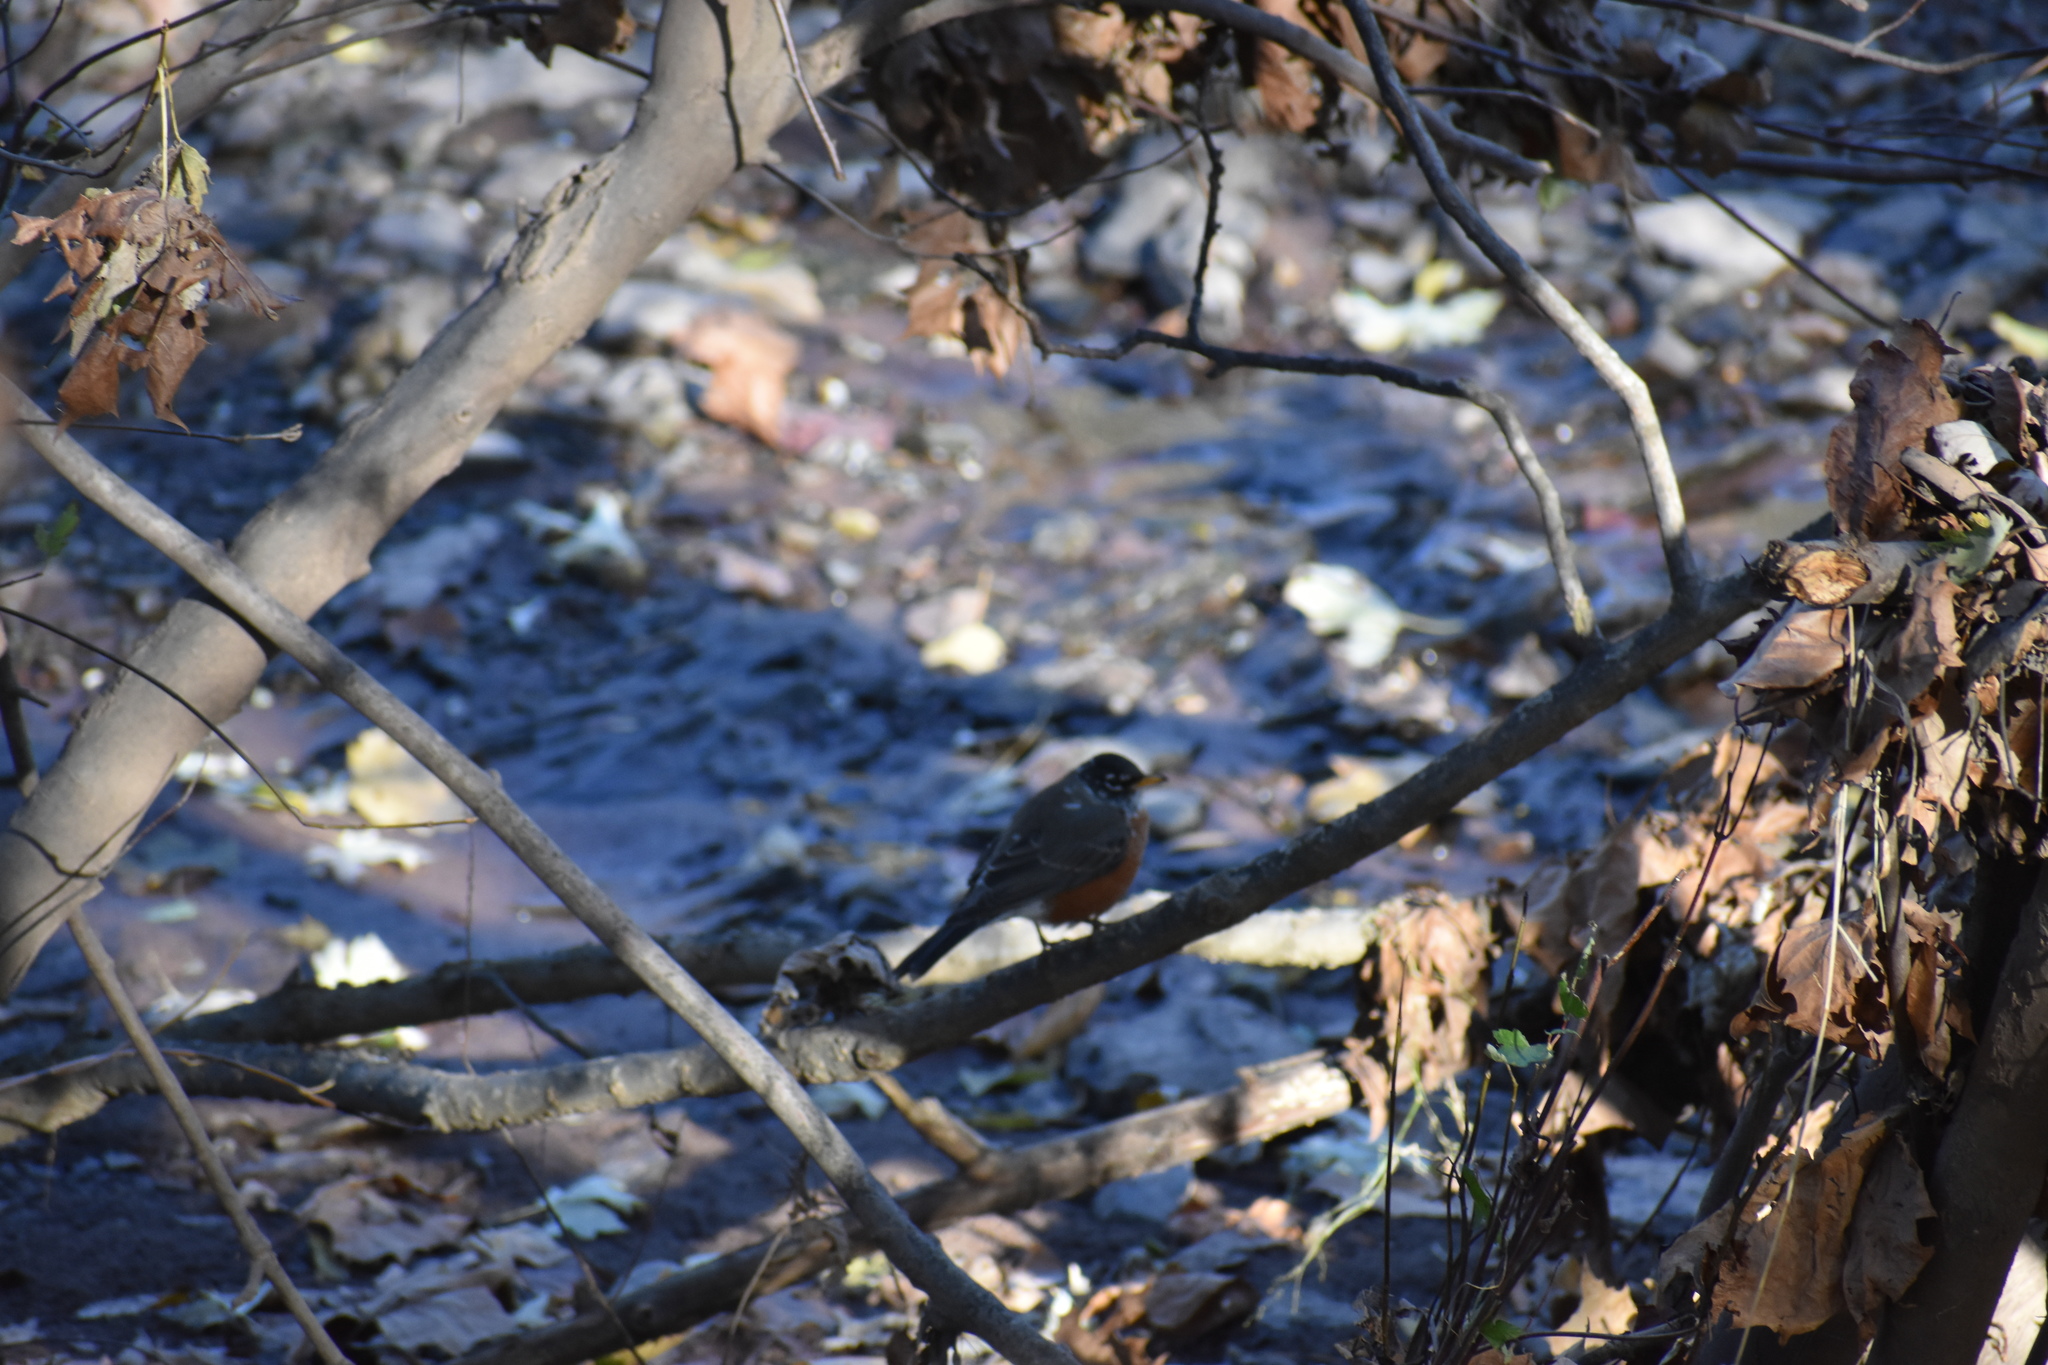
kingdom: Animalia
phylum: Chordata
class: Aves
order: Passeriformes
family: Turdidae
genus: Turdus
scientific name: Turdus migratorius
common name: American robin
